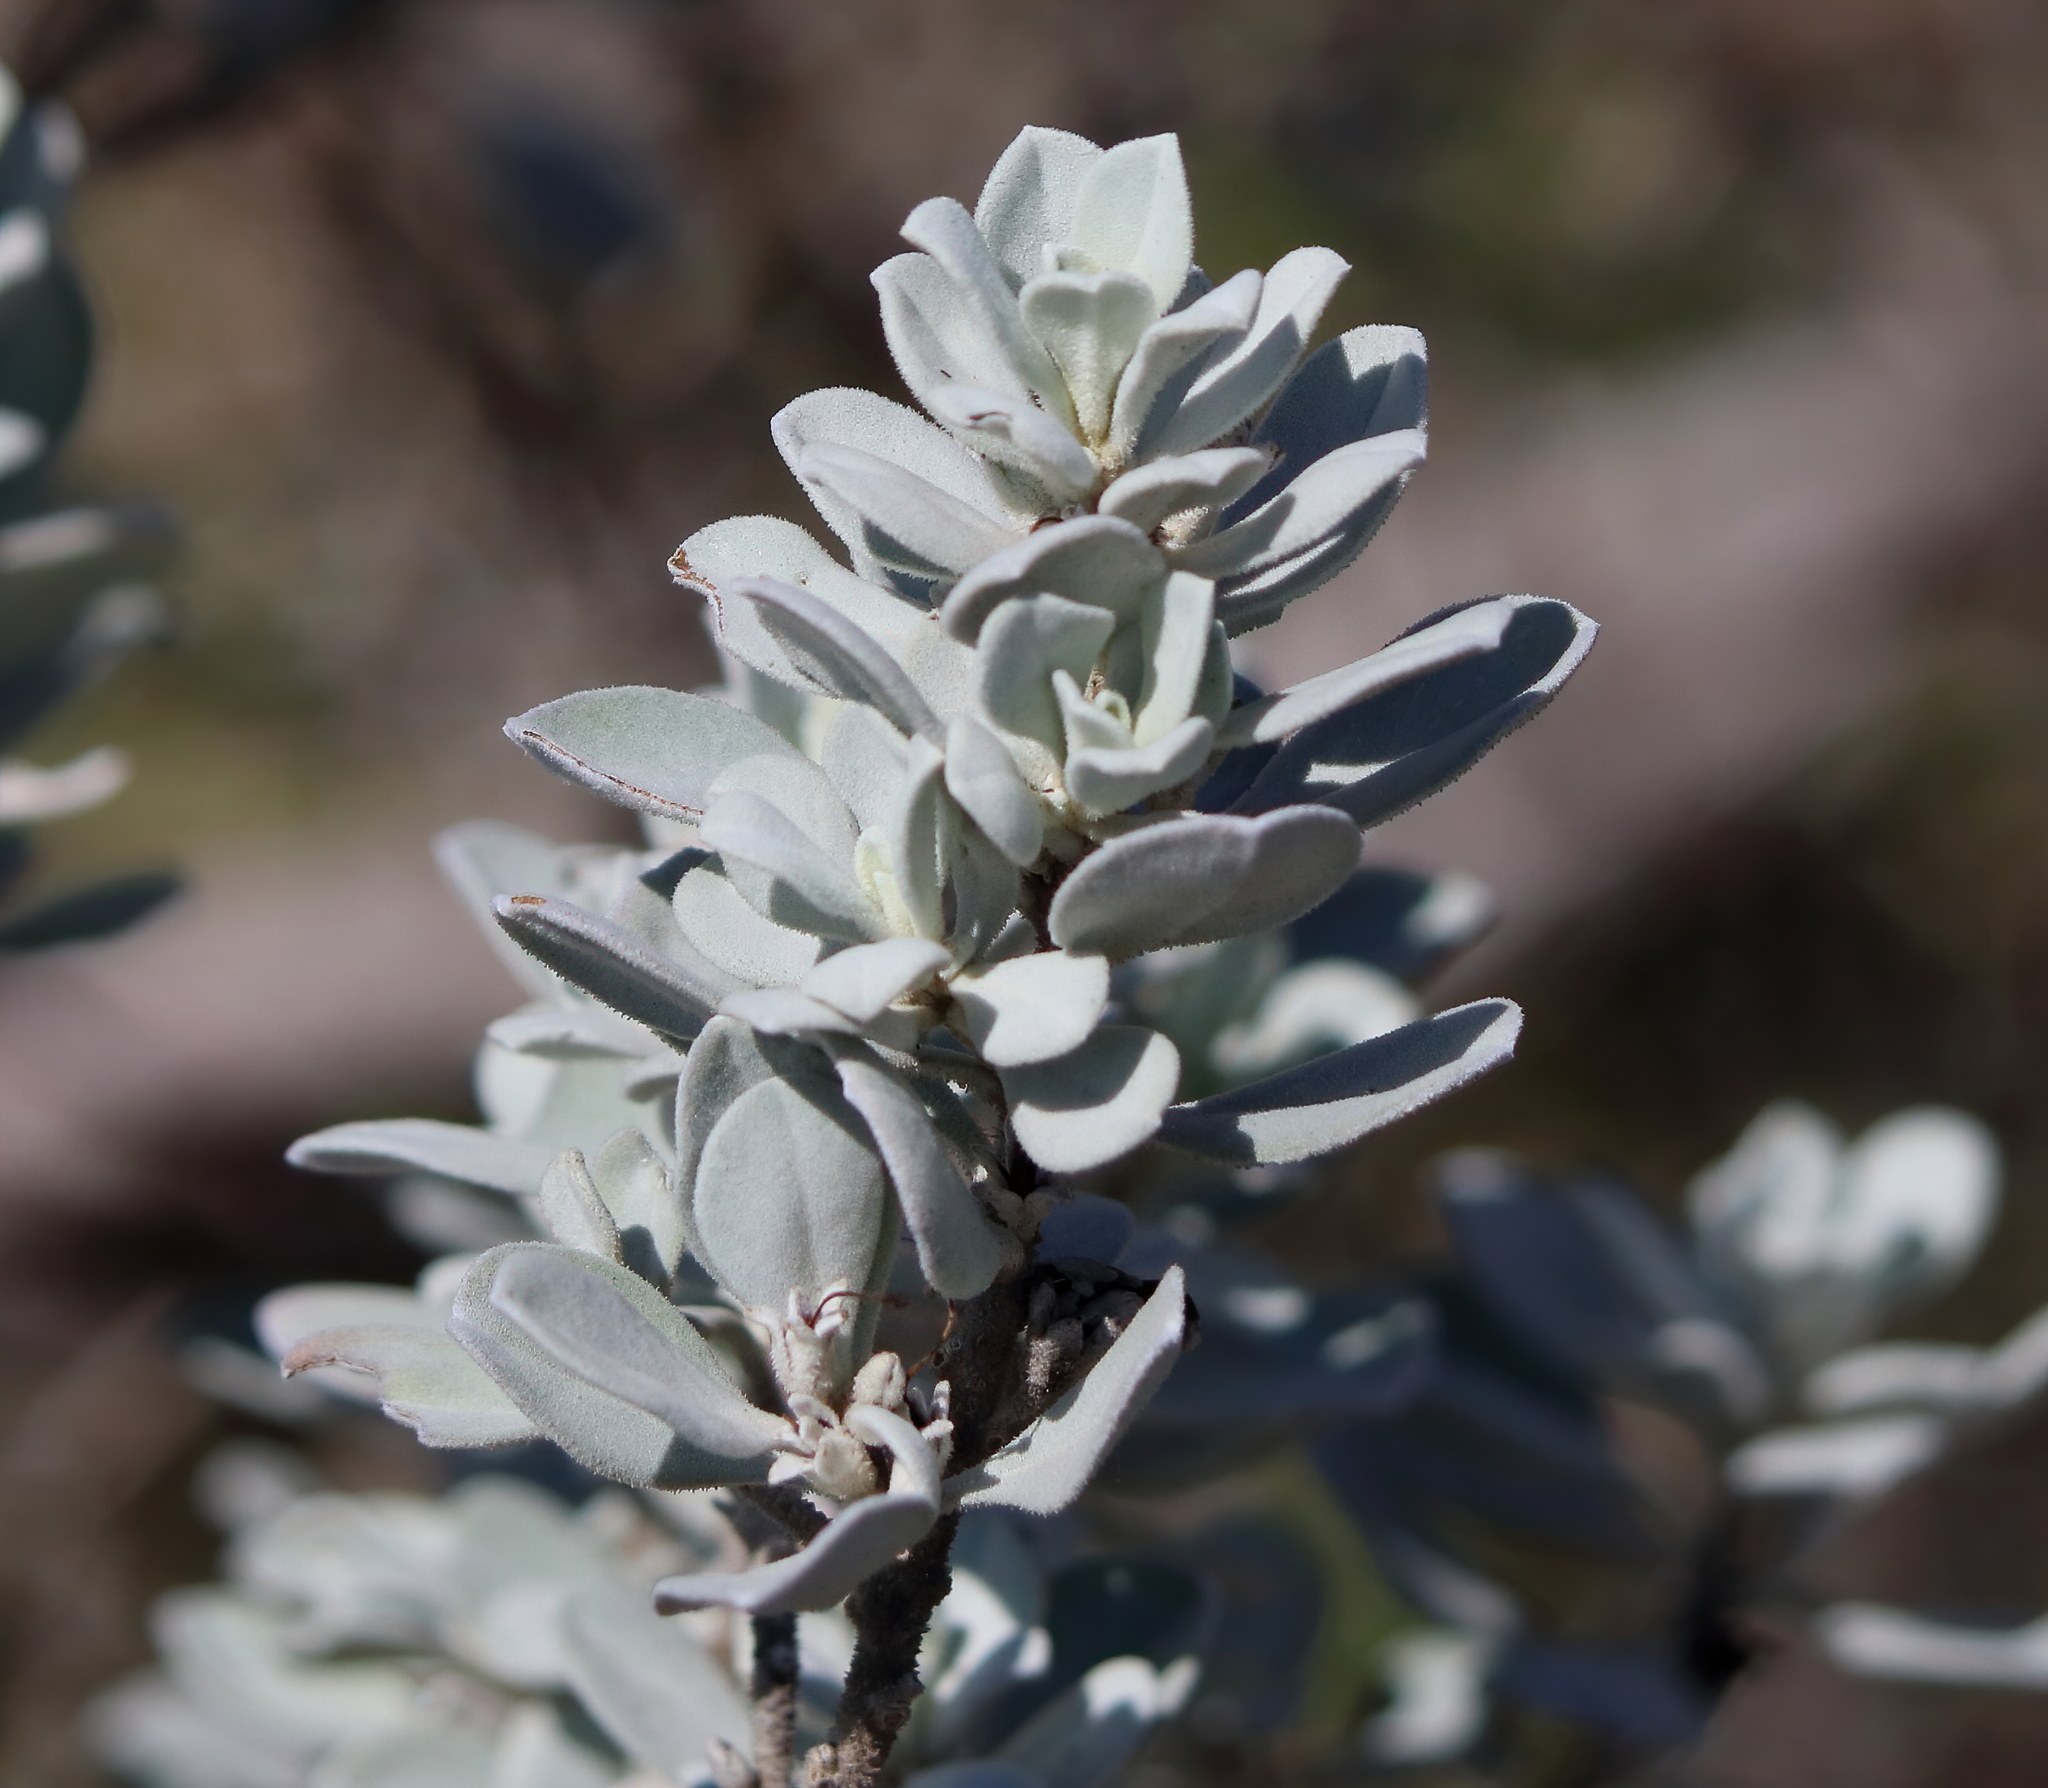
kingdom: Plantae
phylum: Tracheophyta
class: Magnoliopsida
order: Lamiales
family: Scrophulariaceae
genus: Leucophyllum
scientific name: Leucophyllum frutescens
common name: Texas silverleaf
